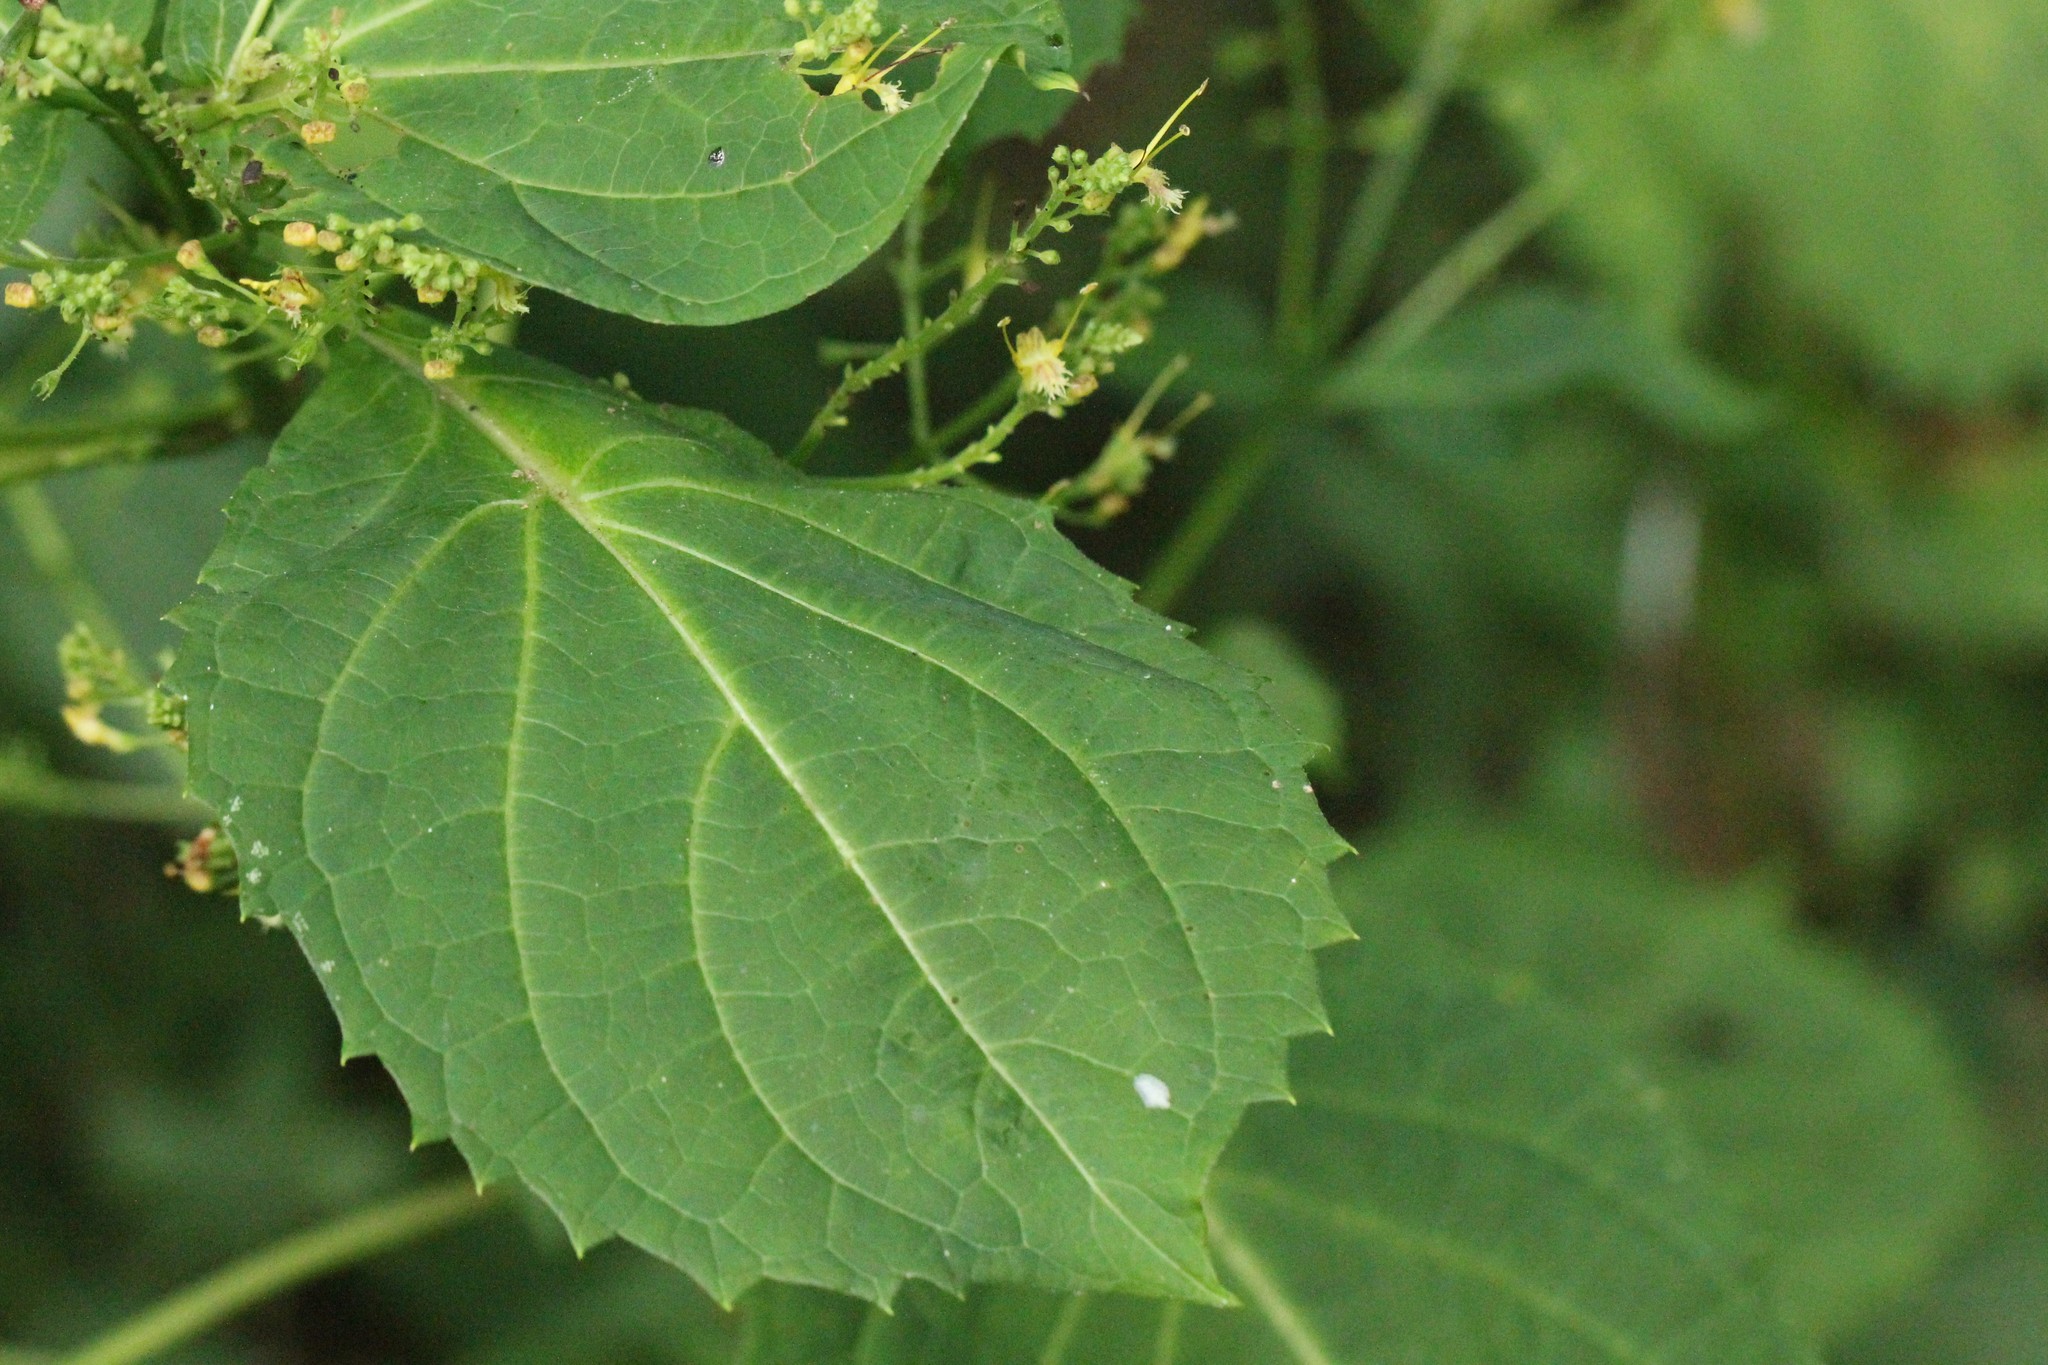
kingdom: Plantae
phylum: Tracheophyta
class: Magnoliopsida
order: Lamiales
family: Lamiaceae
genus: Collinsonia
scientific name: Collinsonia canadensis
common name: Northern horsebalm
